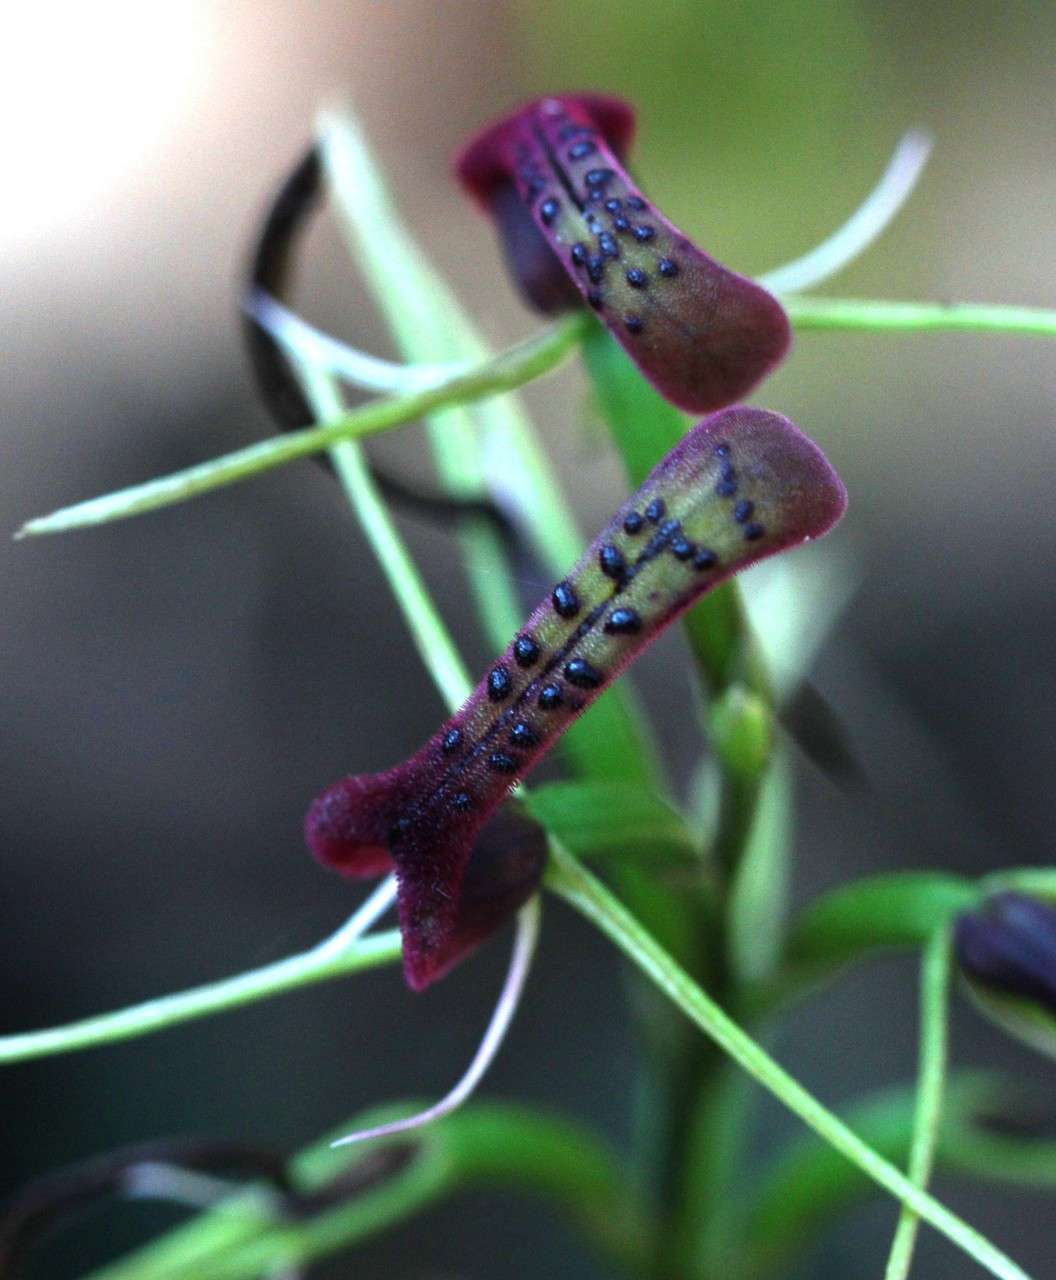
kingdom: Plantae
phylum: Tracheophyta
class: Liliopsida
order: Asparagales
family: Orchidaceae
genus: Cryptostylis
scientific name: Cryptostylis leptochila
